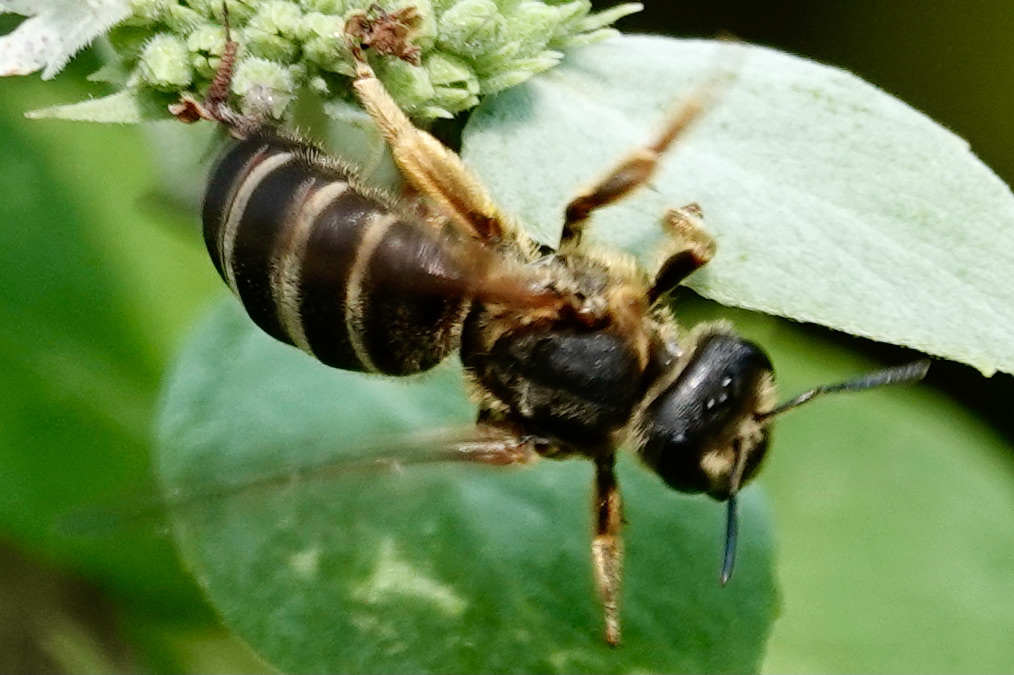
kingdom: Animalia
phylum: Arthropoda
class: Insecta
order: Hymenoptera
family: Halictidae
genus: Halictus
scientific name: Halictus parallelus
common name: Parallel-striped sweat bee
